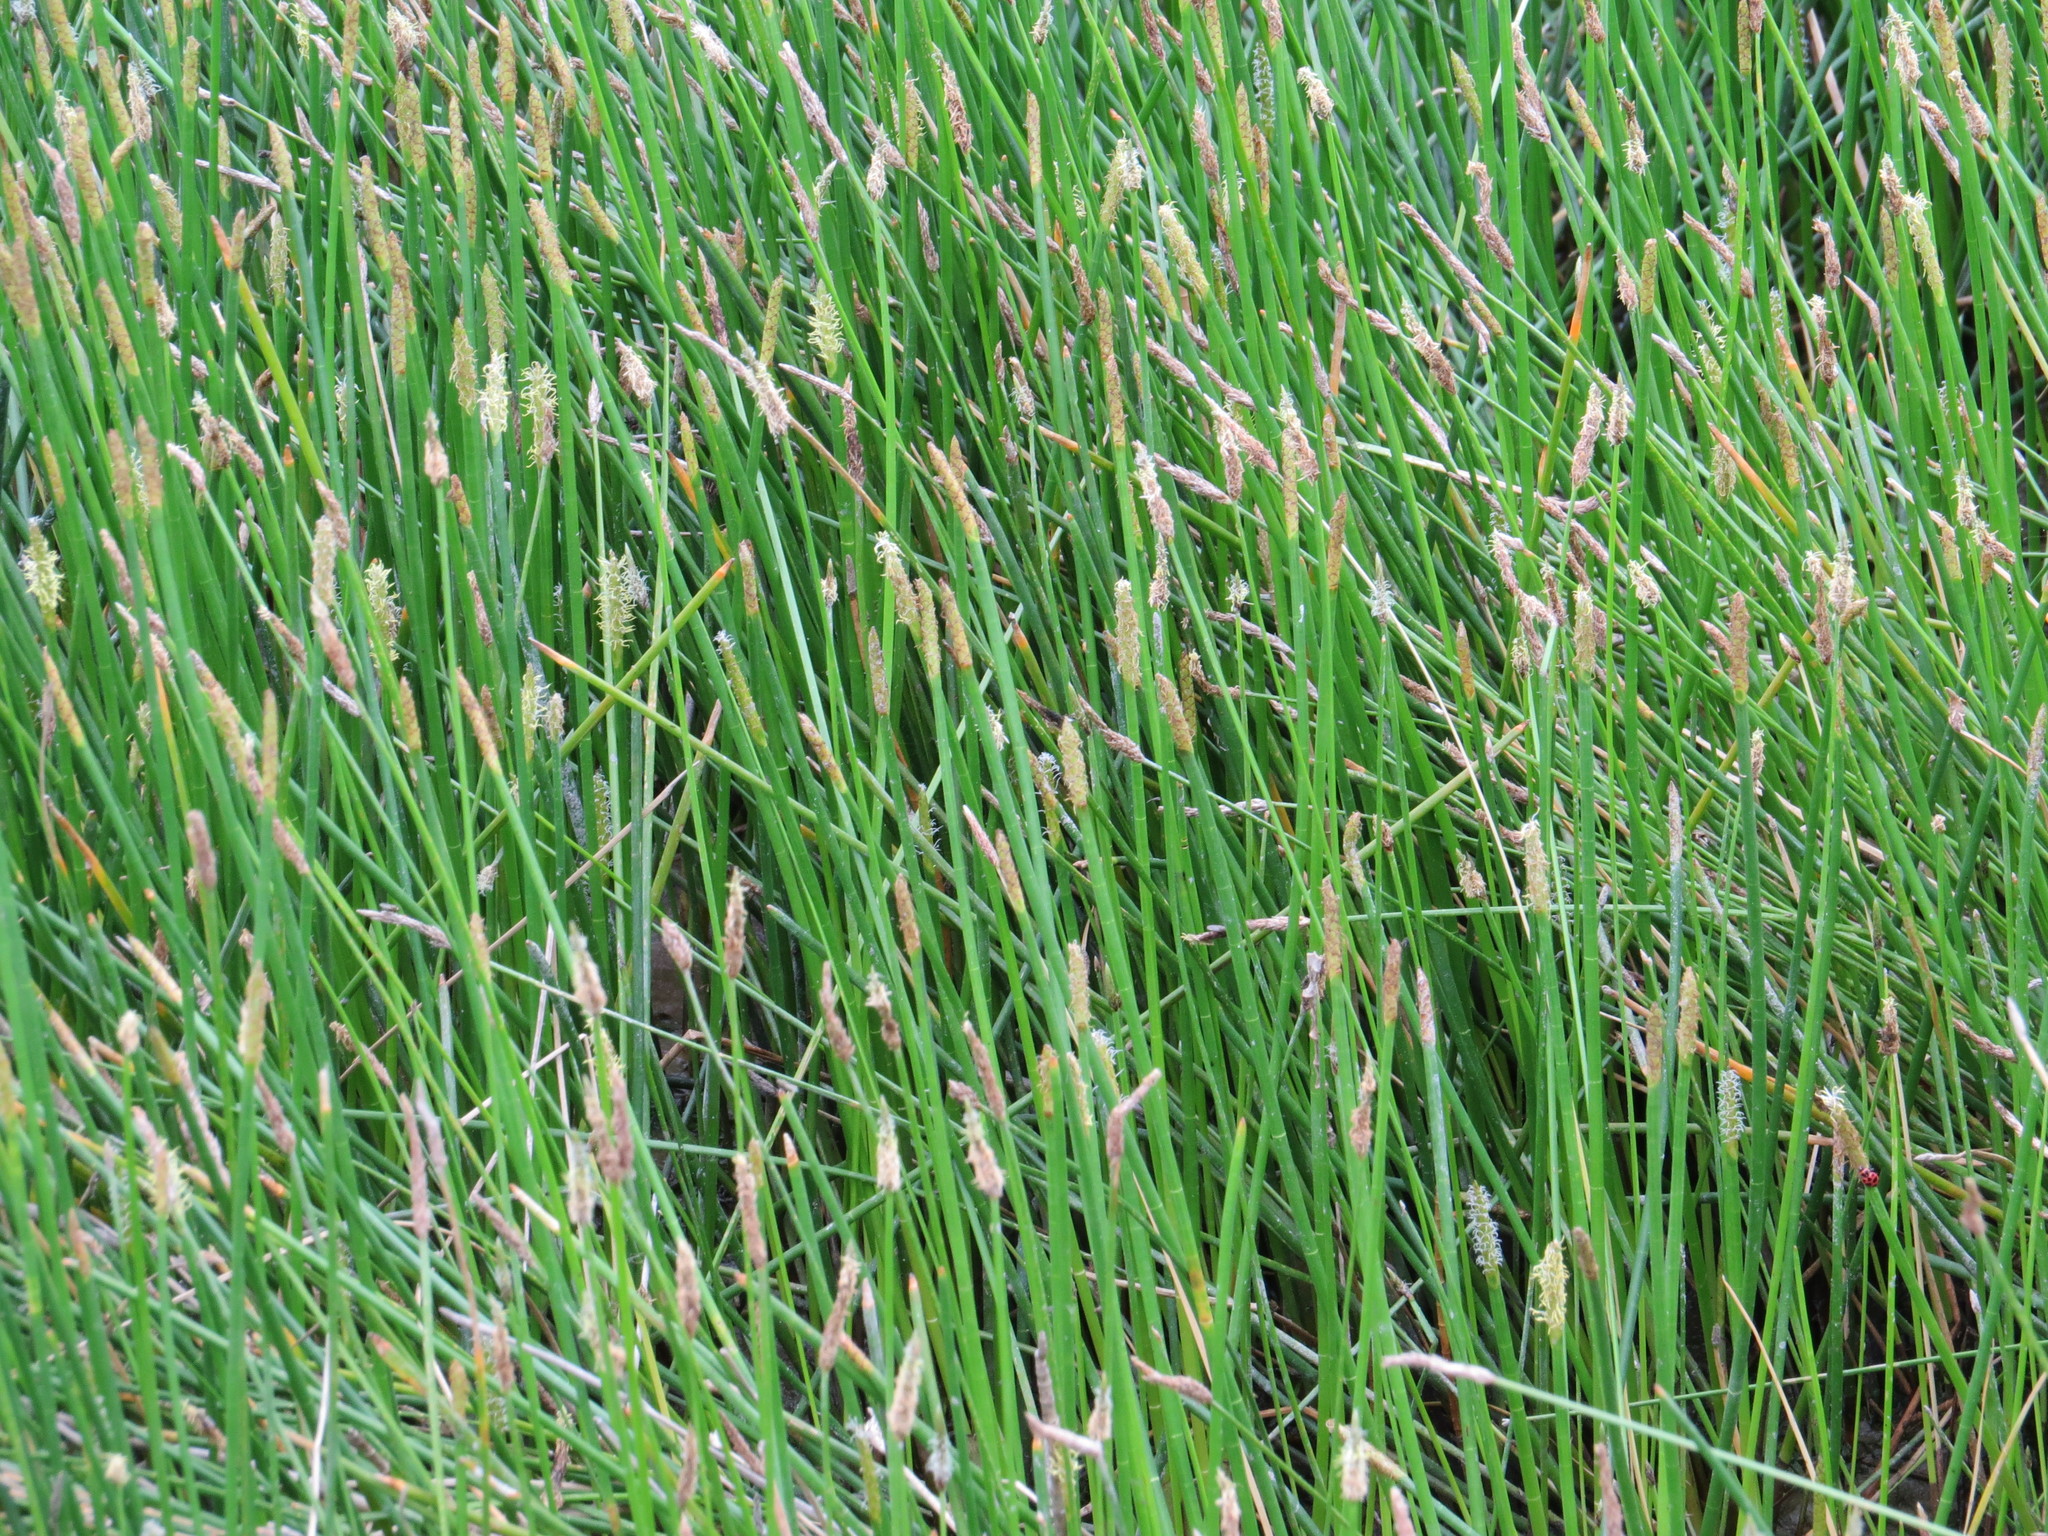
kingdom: Plantae
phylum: Tracheophyta
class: Liliopsida
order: Poales
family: Cyperaceae
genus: Eleocharis
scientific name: Eleocharis interstincta
